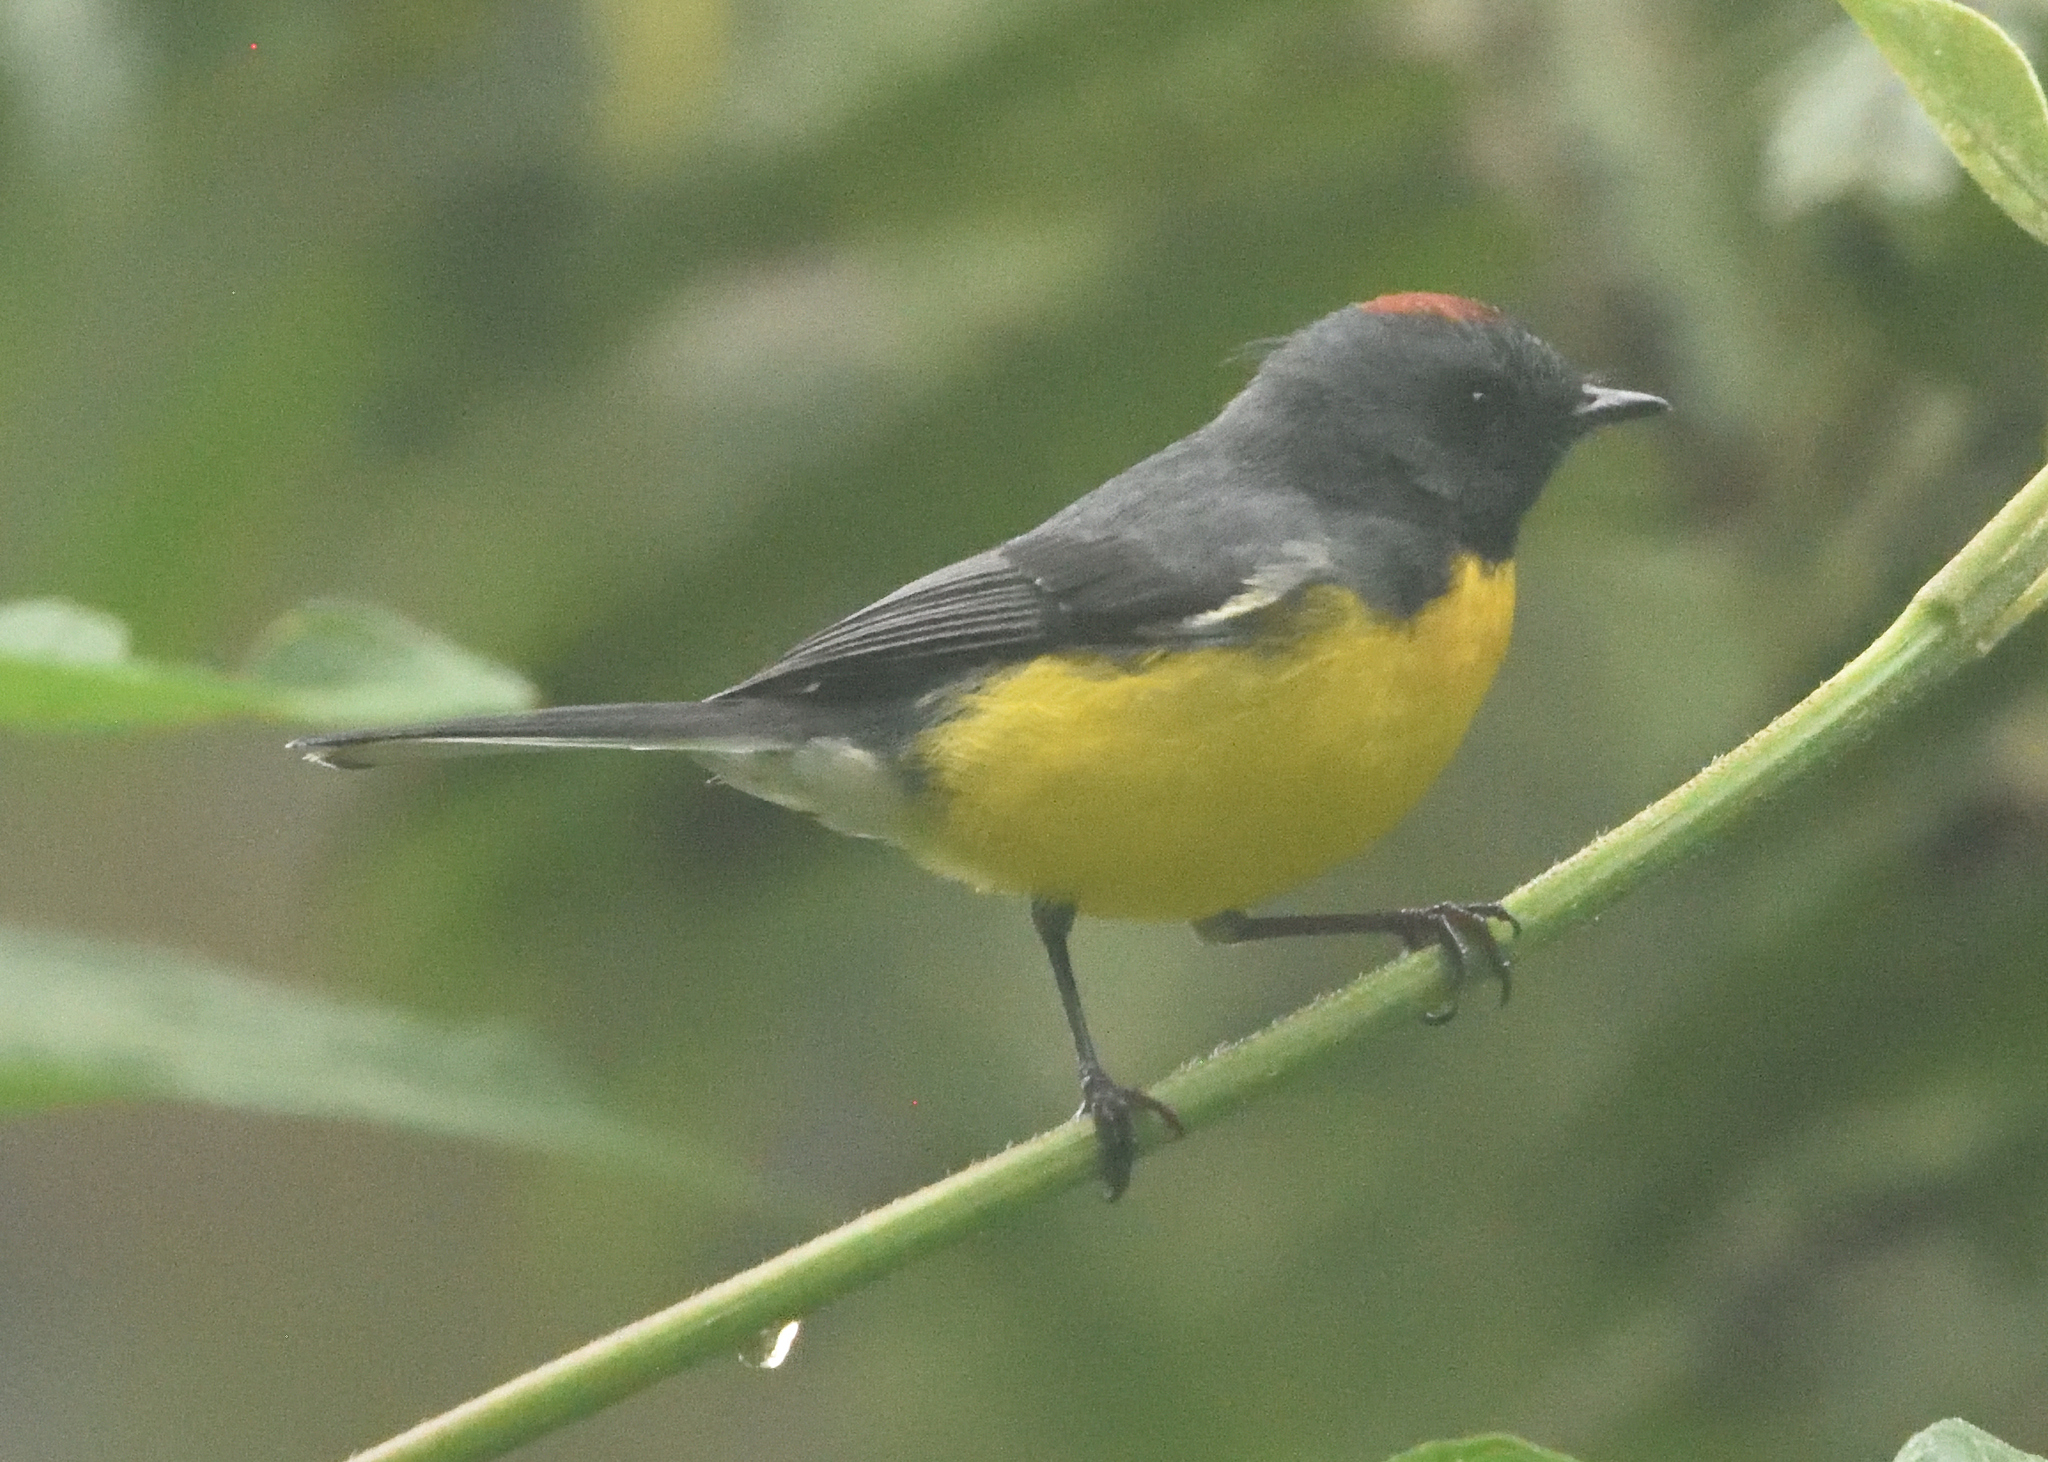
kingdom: Animalia
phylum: Chordata
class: Aves
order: Passeriformes
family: Parulidae
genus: Myioborus
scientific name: Myioborus miniatus
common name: Slate-throated redstart
